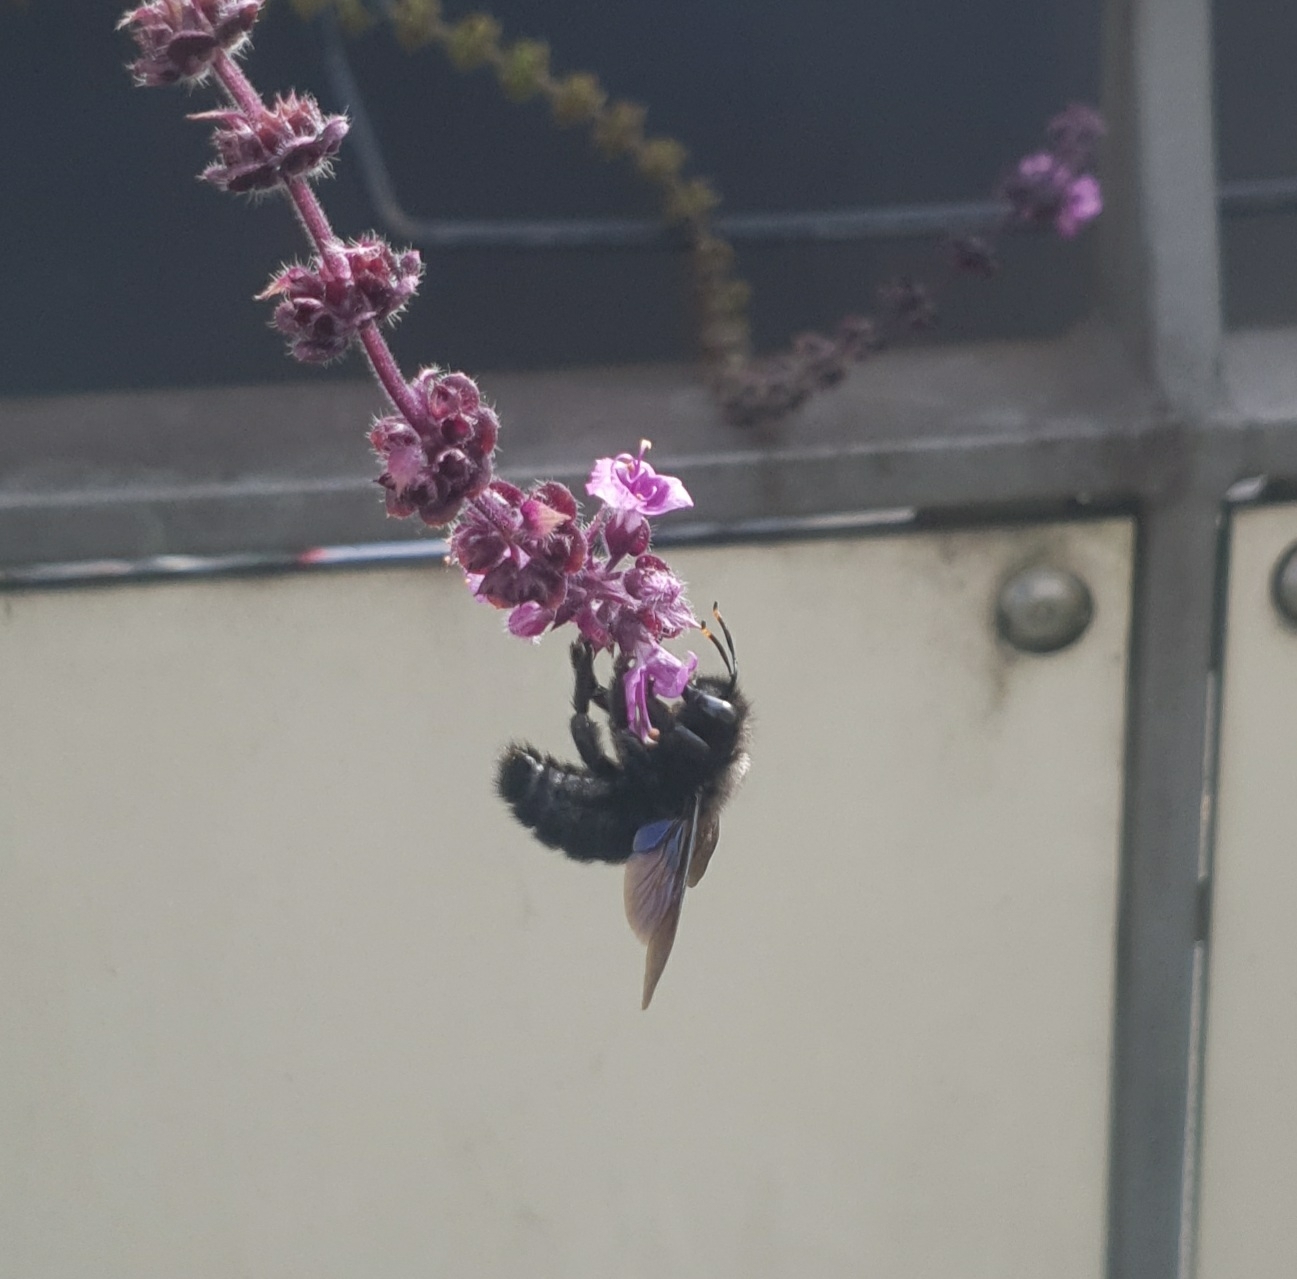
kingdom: Animalia
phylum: Arthropoda
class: Insecta
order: Hymenoptera
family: Apidae
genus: Xylocopa
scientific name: Xylocopa violacea
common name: Violet carpenter bee
